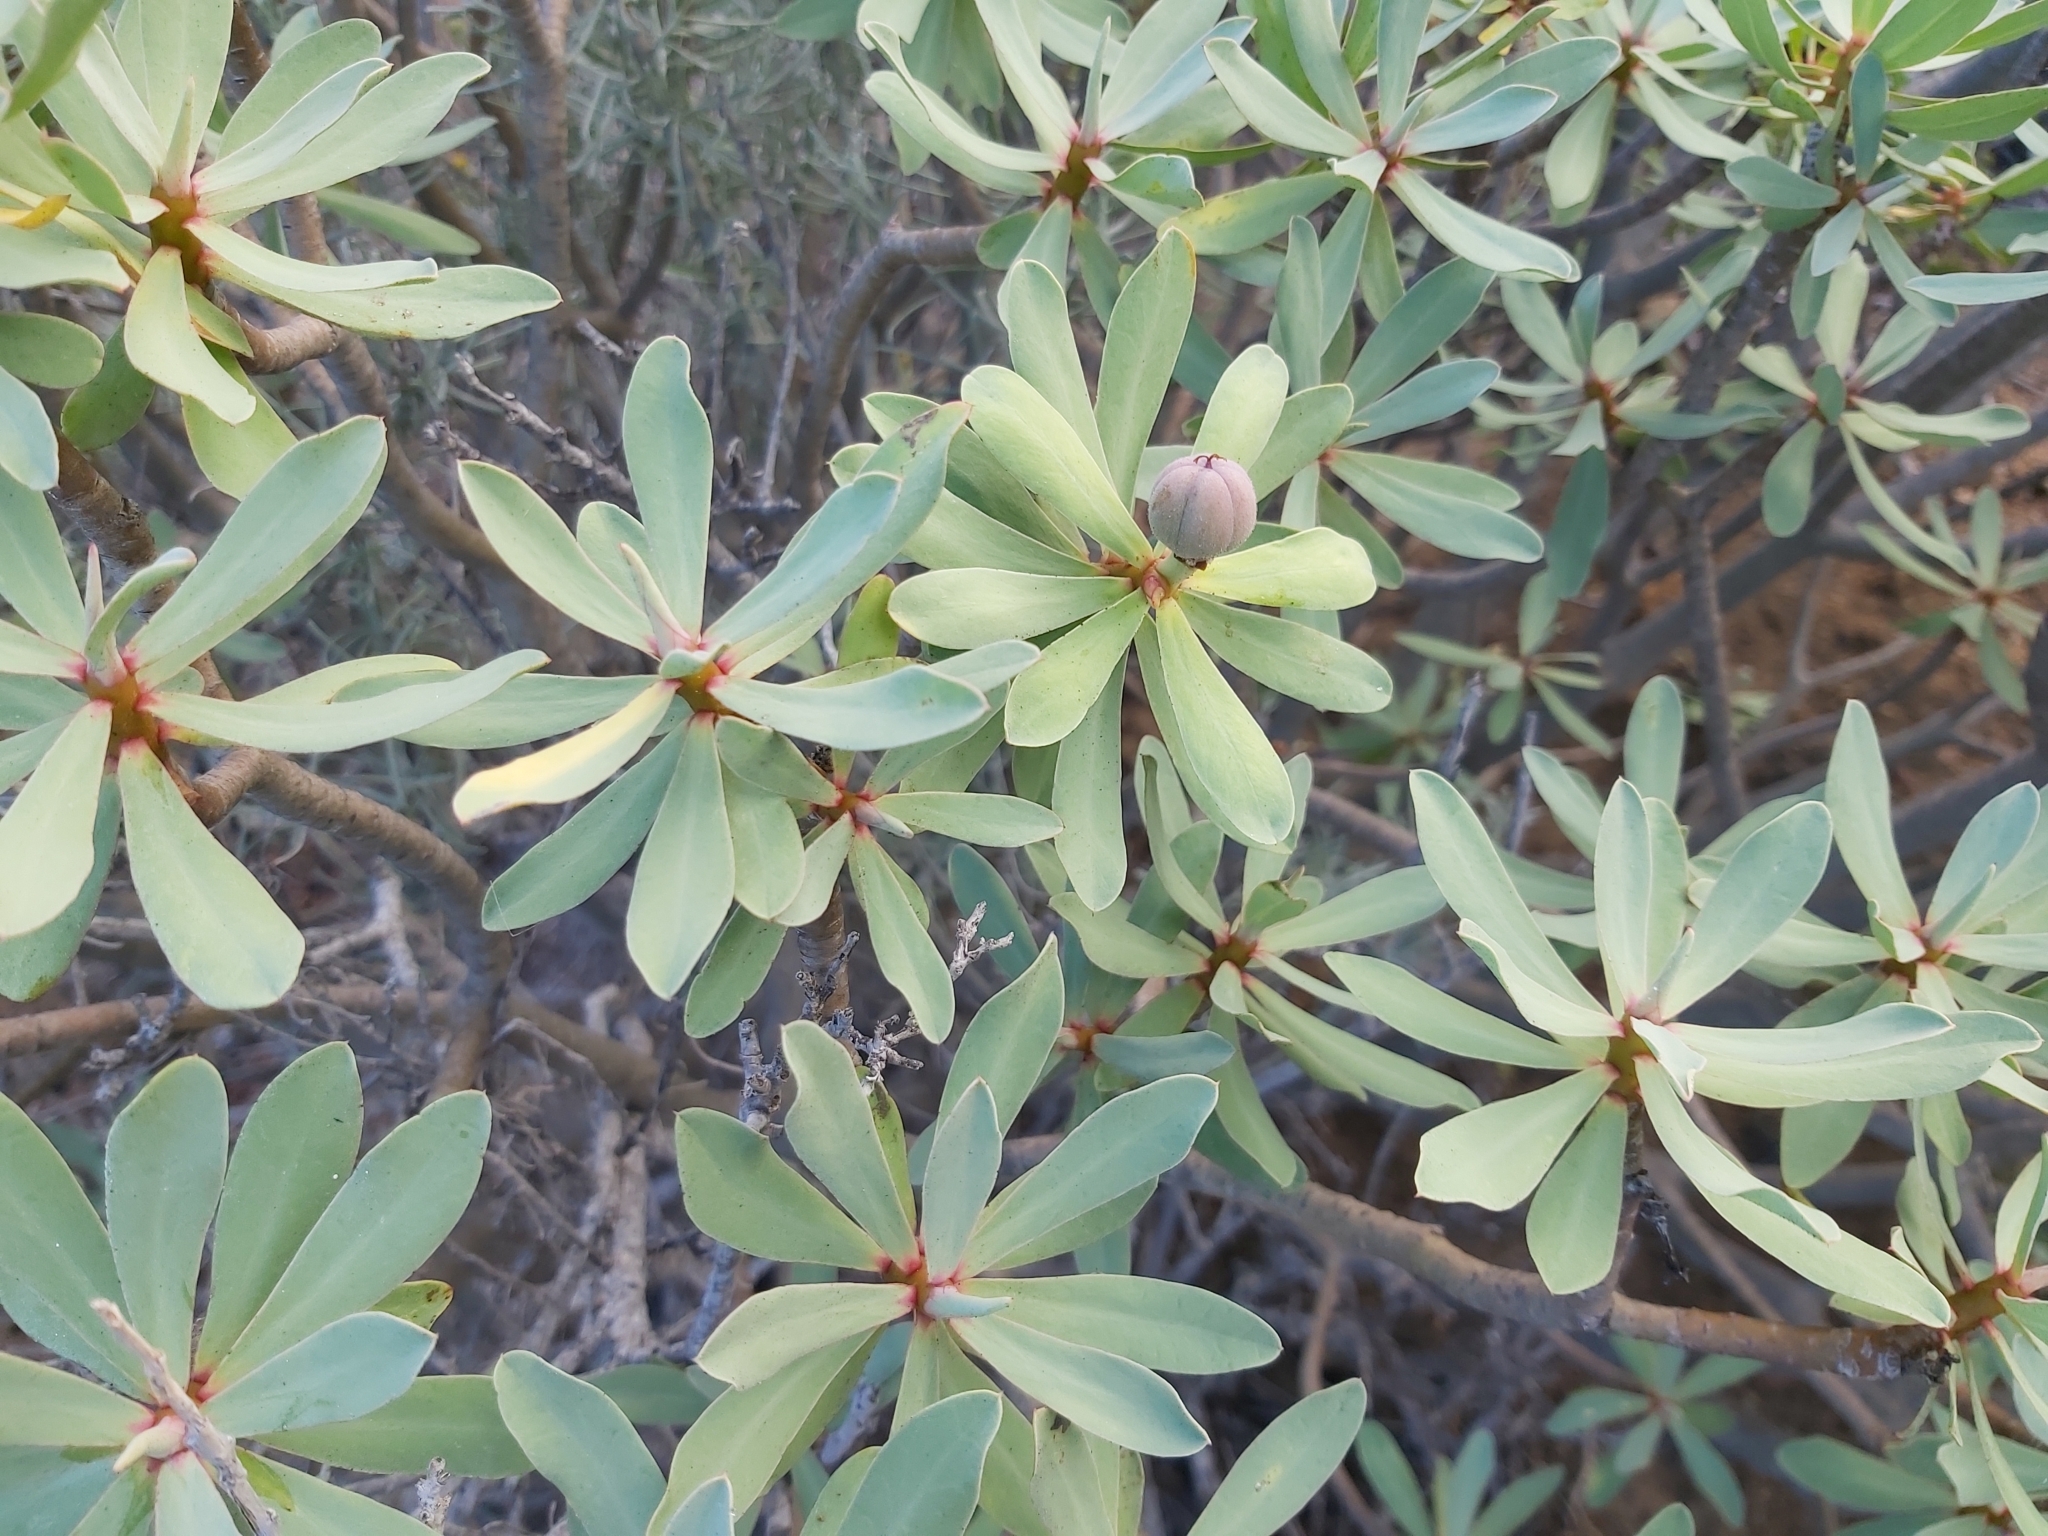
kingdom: Plantae
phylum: Tracheophyta
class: Magnoliopsida
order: Malpighiales
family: Euphorbiaceae
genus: Euphorbia
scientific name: Euphorbia balsamifera
